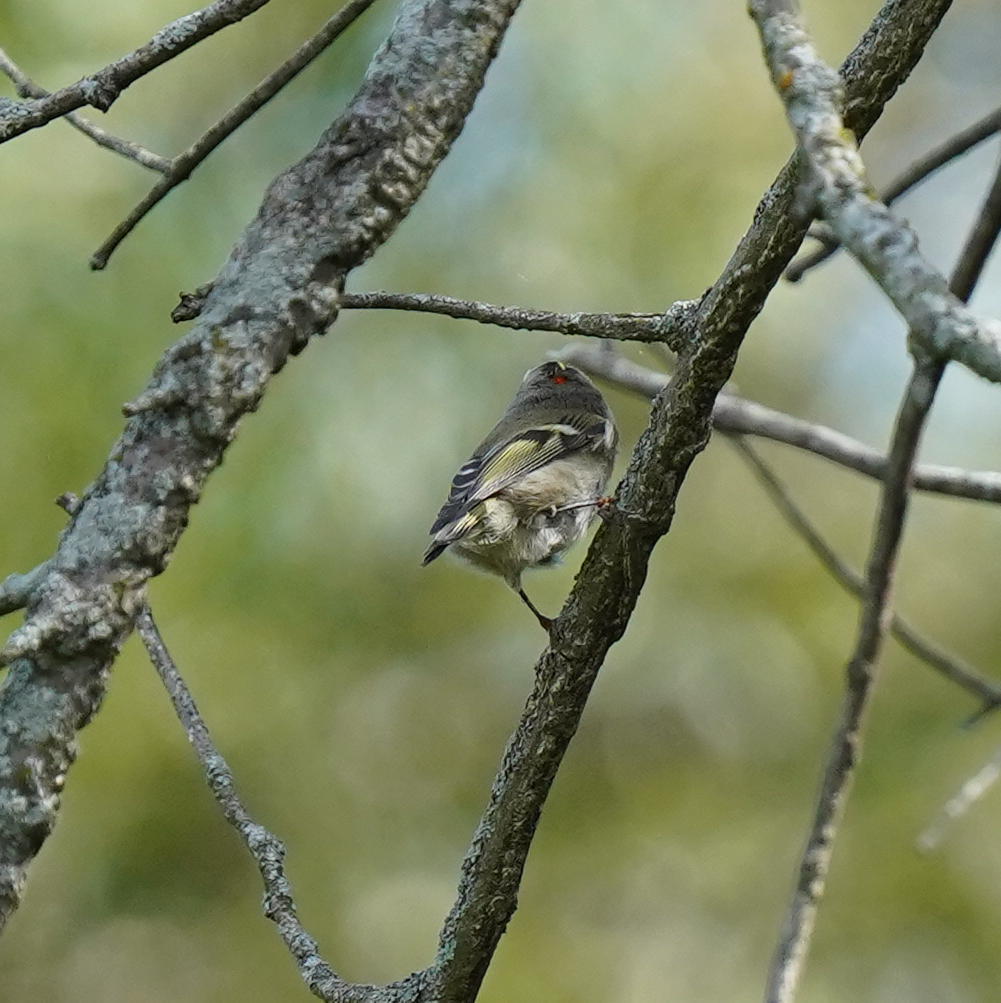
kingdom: Animalia
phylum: Chordata
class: Aves
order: Passeriformes
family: Regulidae
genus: Regulus
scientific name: Regulus satrapa
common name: Golden-crowned kinglet
